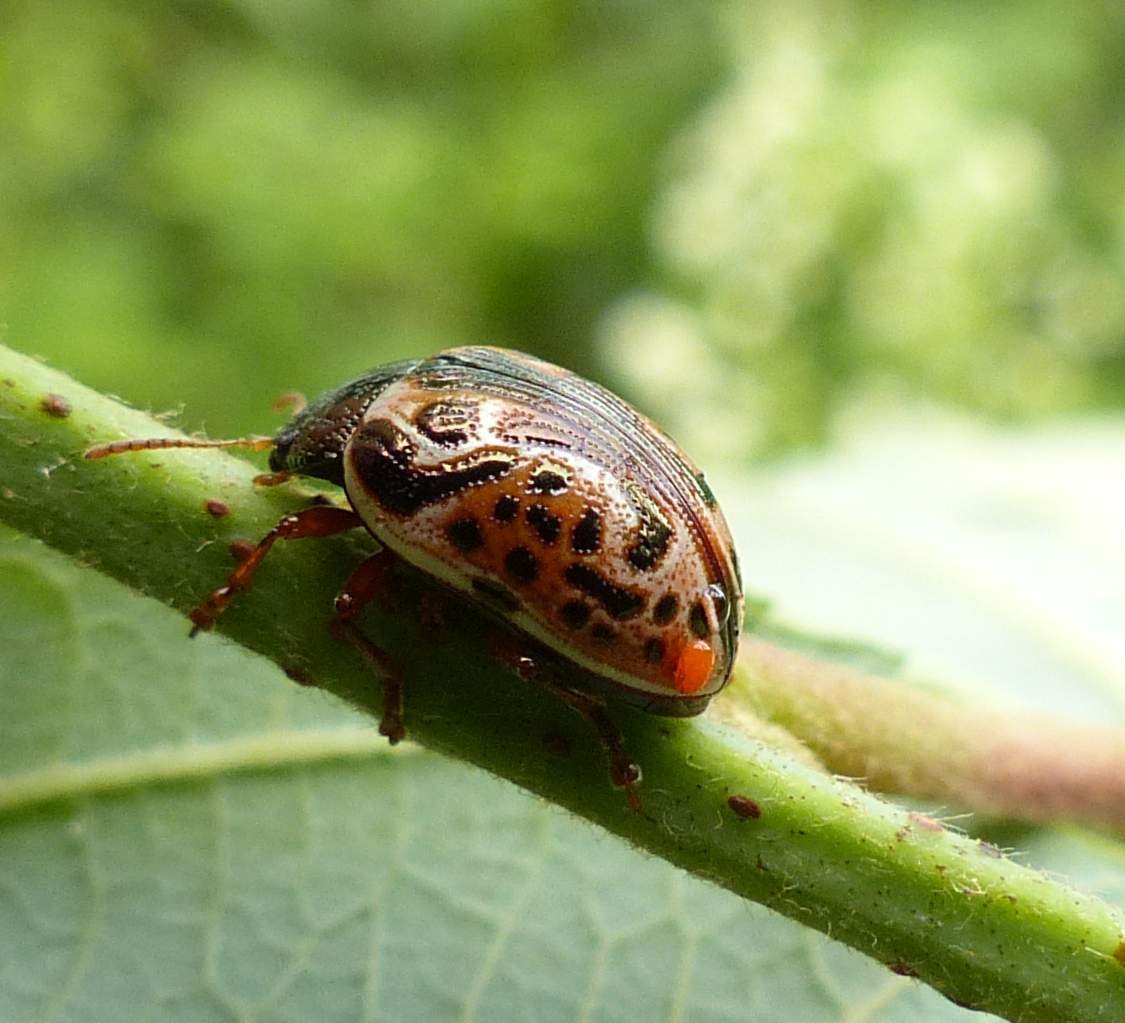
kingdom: Animalia
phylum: Arthropoda
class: Insecta
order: Coleoptera
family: Chrysomelidae
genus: Calligrapha
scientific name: Calligrapha alni
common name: Russet alder leaf beetle
